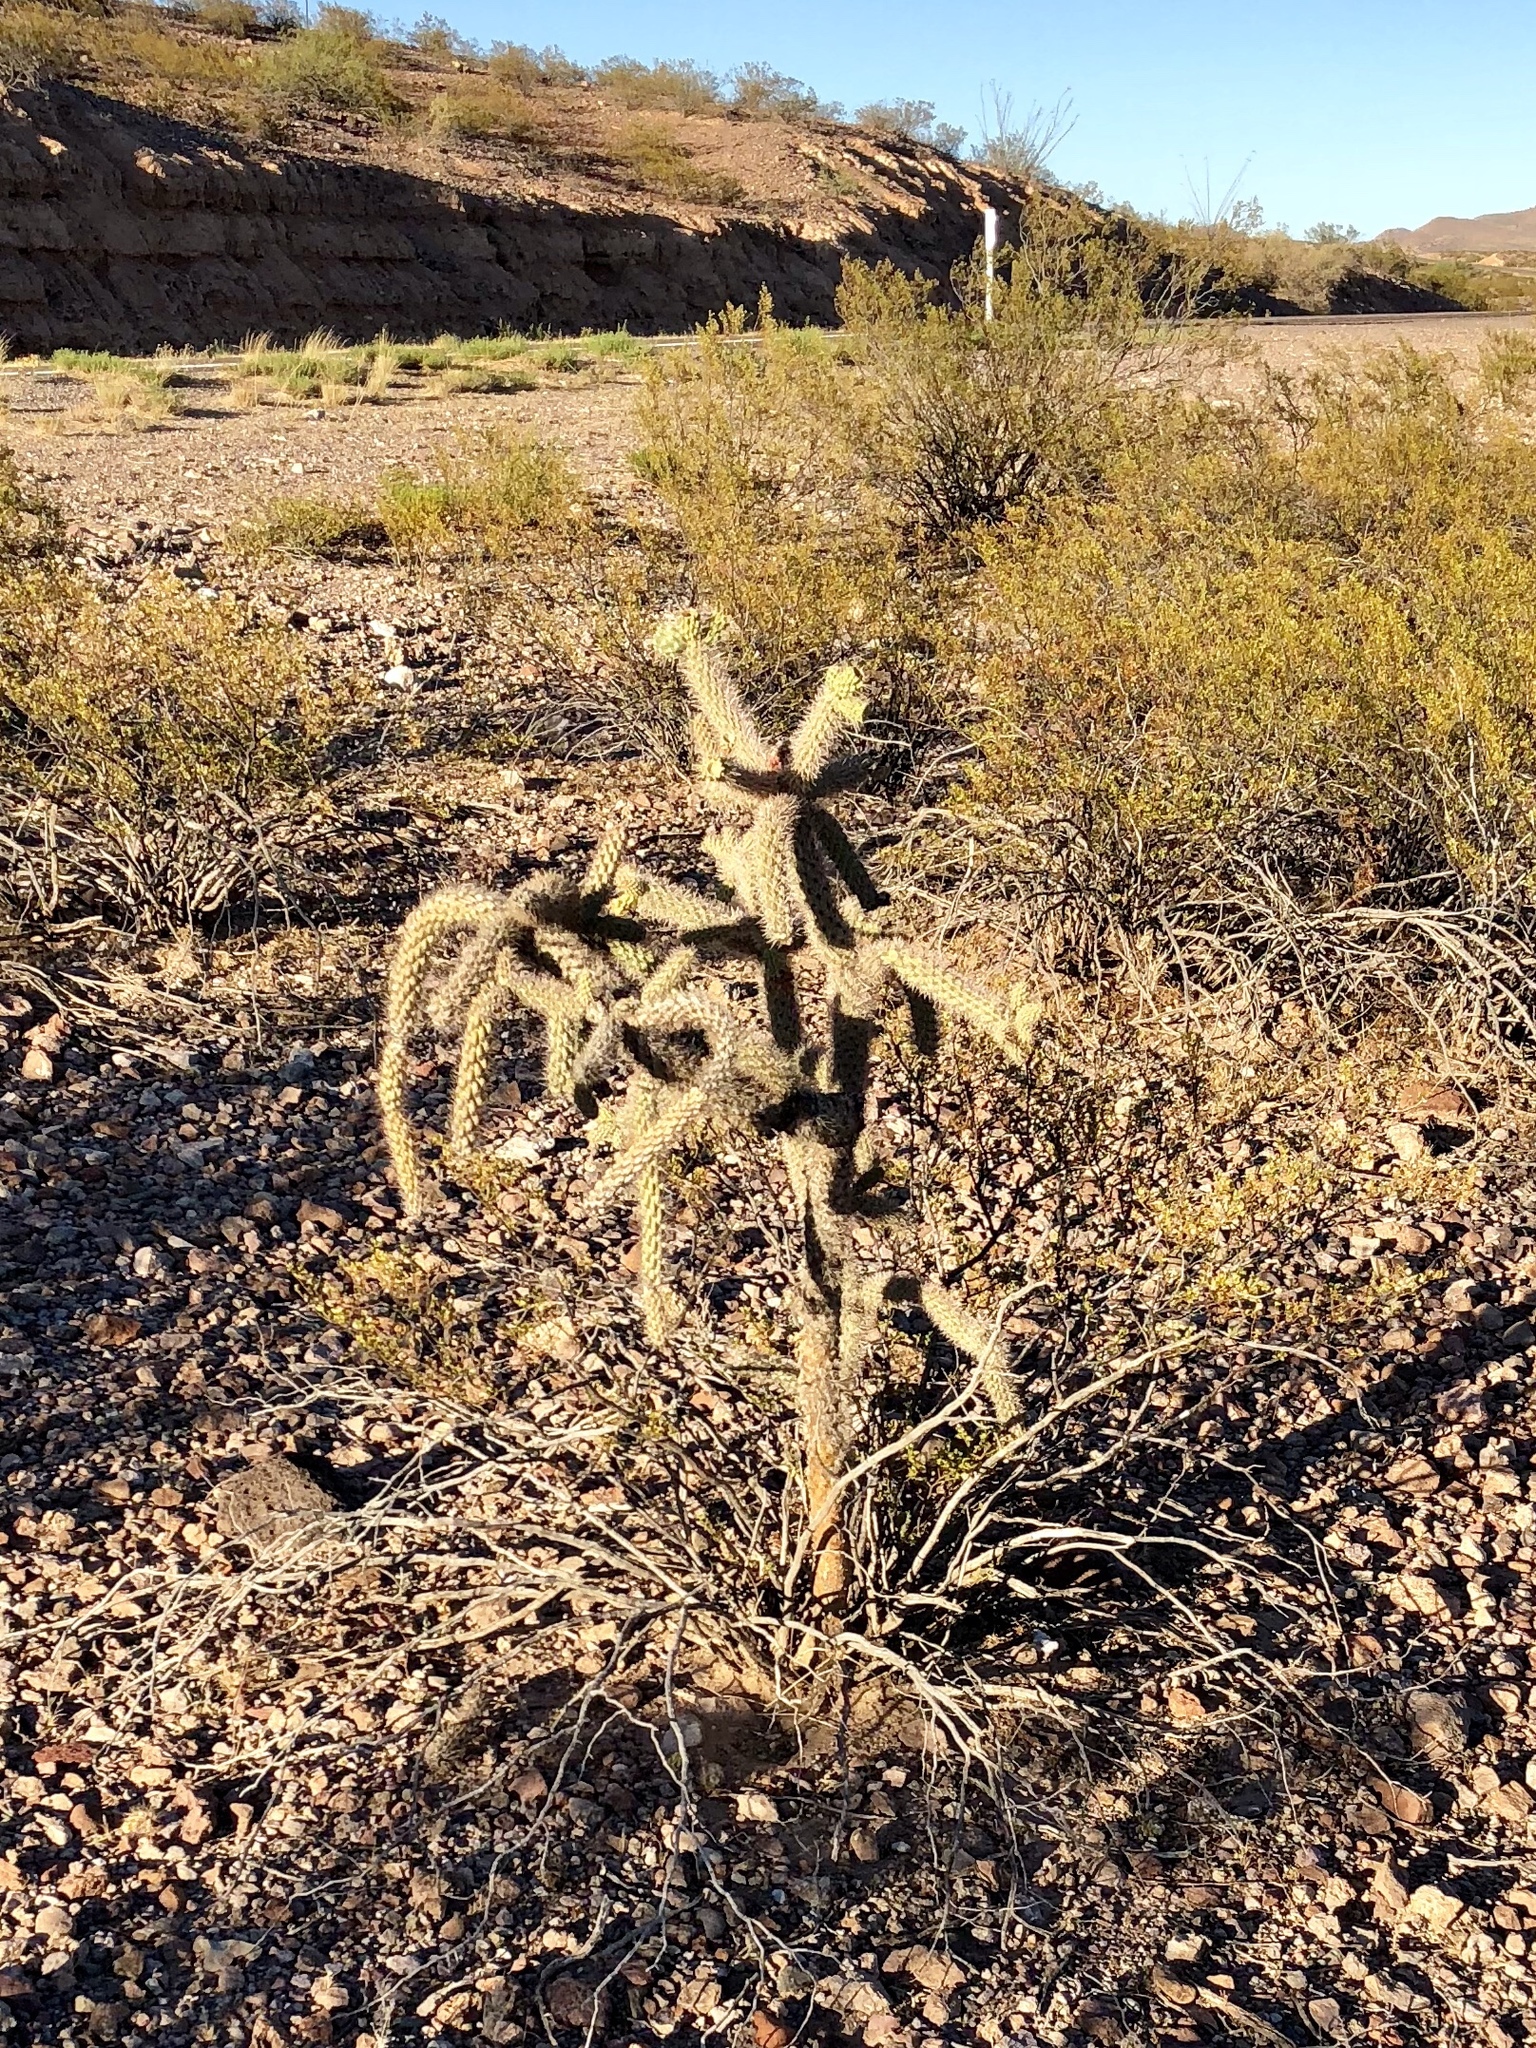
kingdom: Plantae
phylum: Tracheophyta
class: Magnoliopsida
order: Caryophyllales
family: Cactaceae
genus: Cylindropuntia
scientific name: Cylindropuntia imbricata
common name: Candelabrum cactus
